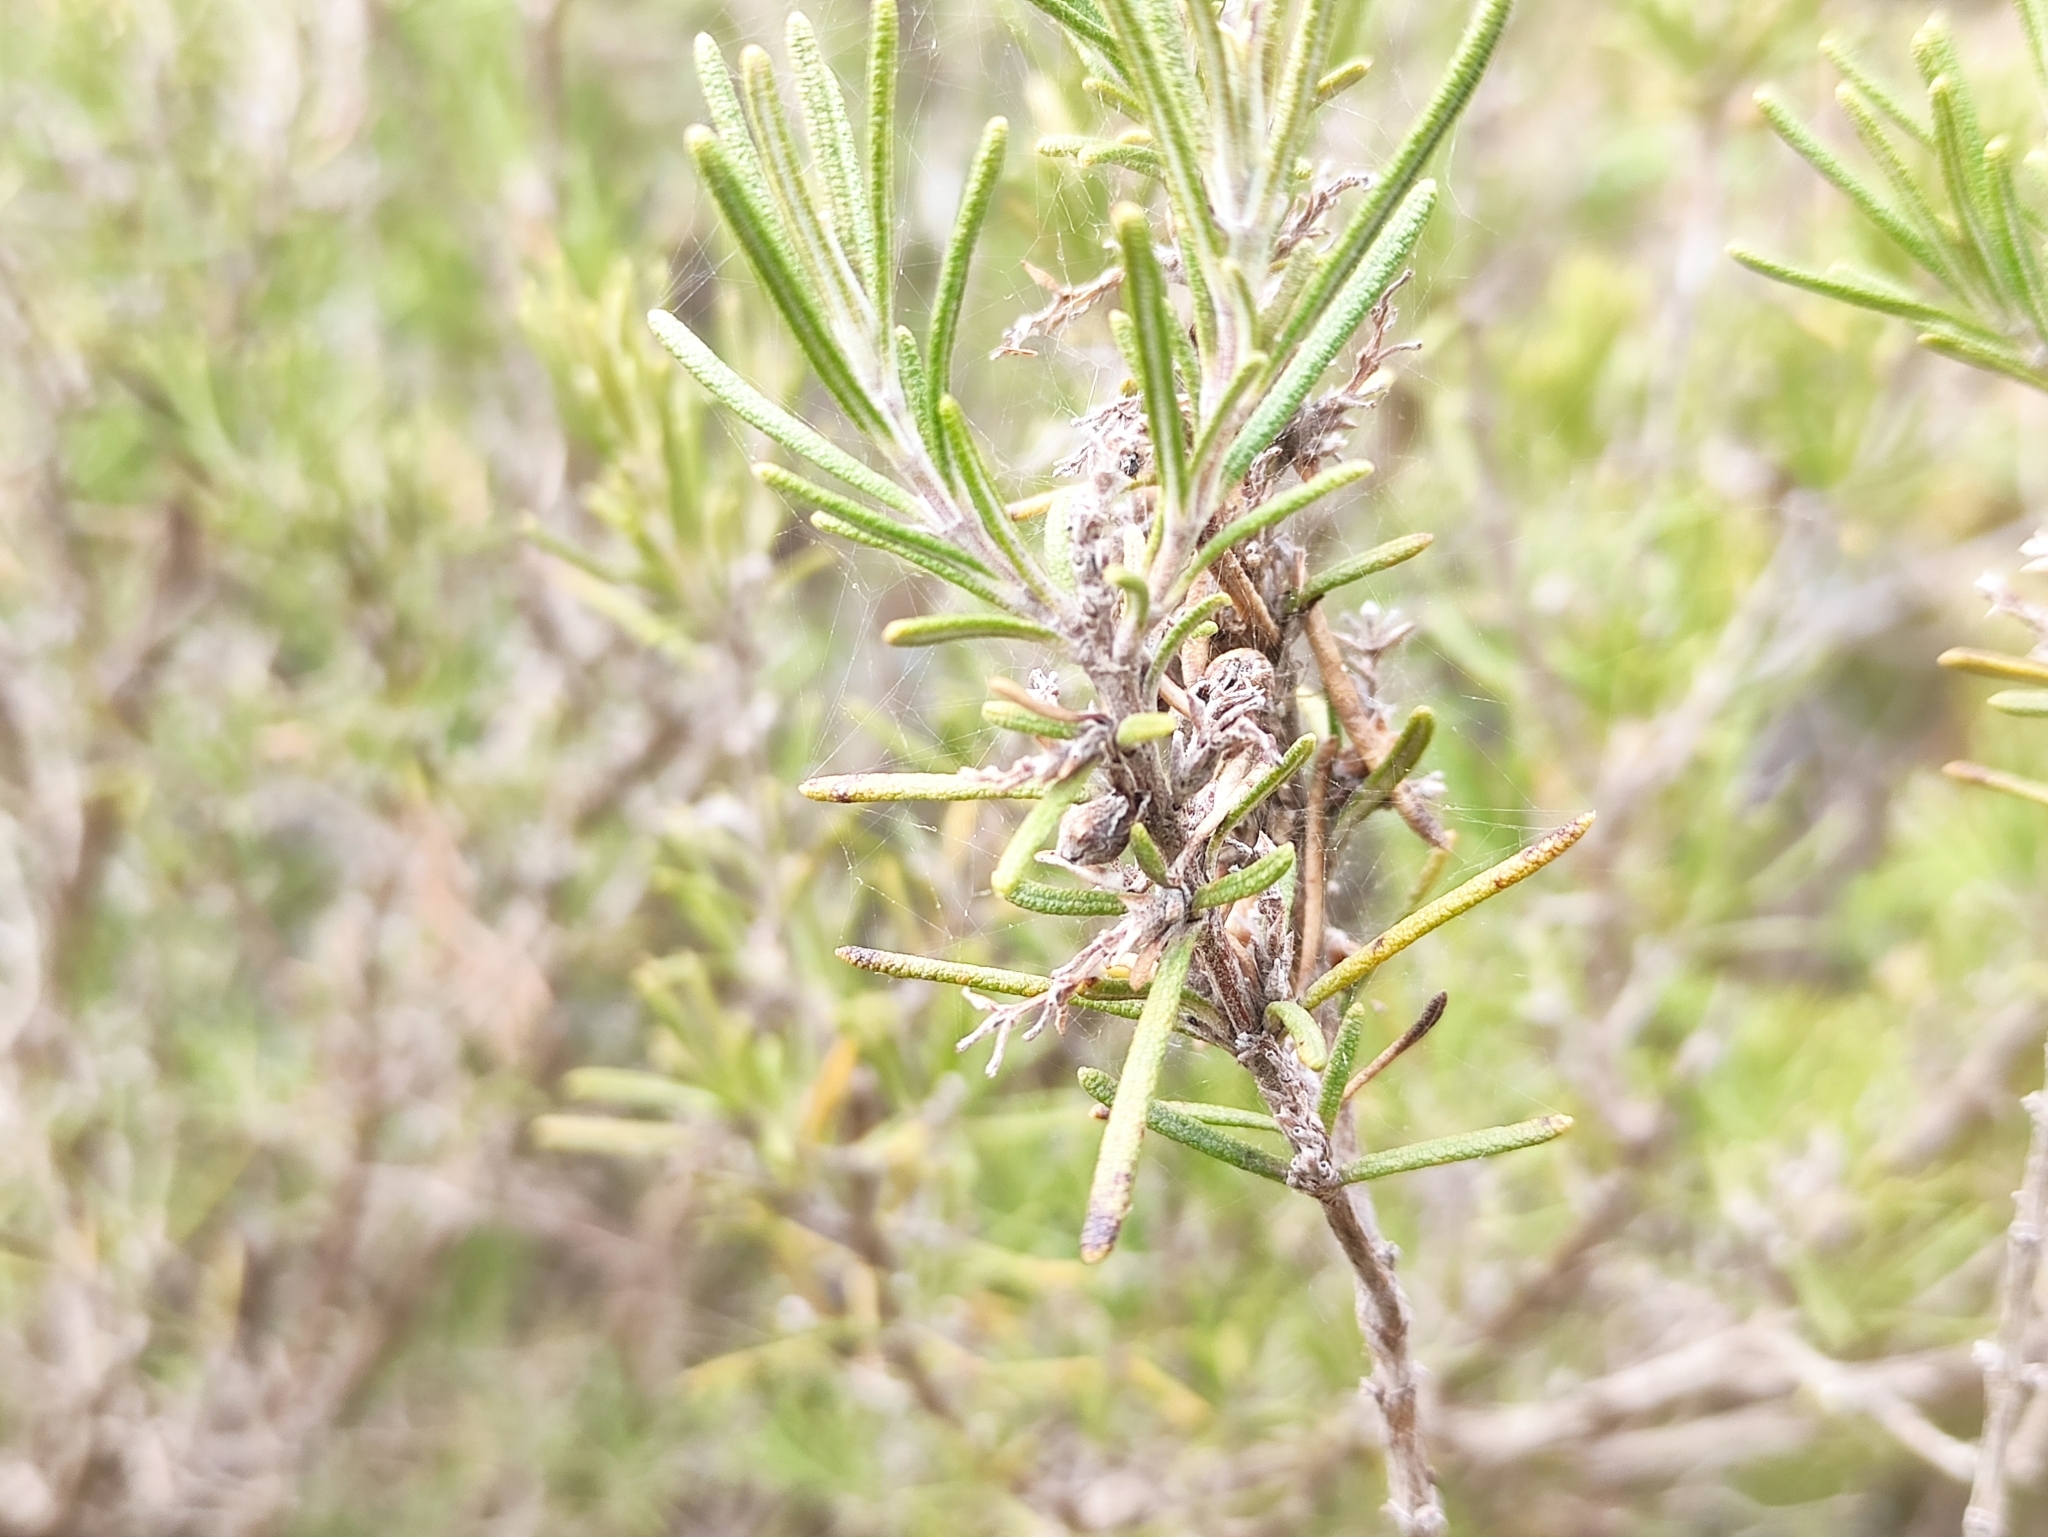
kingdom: Plantae
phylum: Tracheophyta
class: Magnoliopsida
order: Lamiales
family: Lamiaceae
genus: Salvia
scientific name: Salvia rosmarinus
